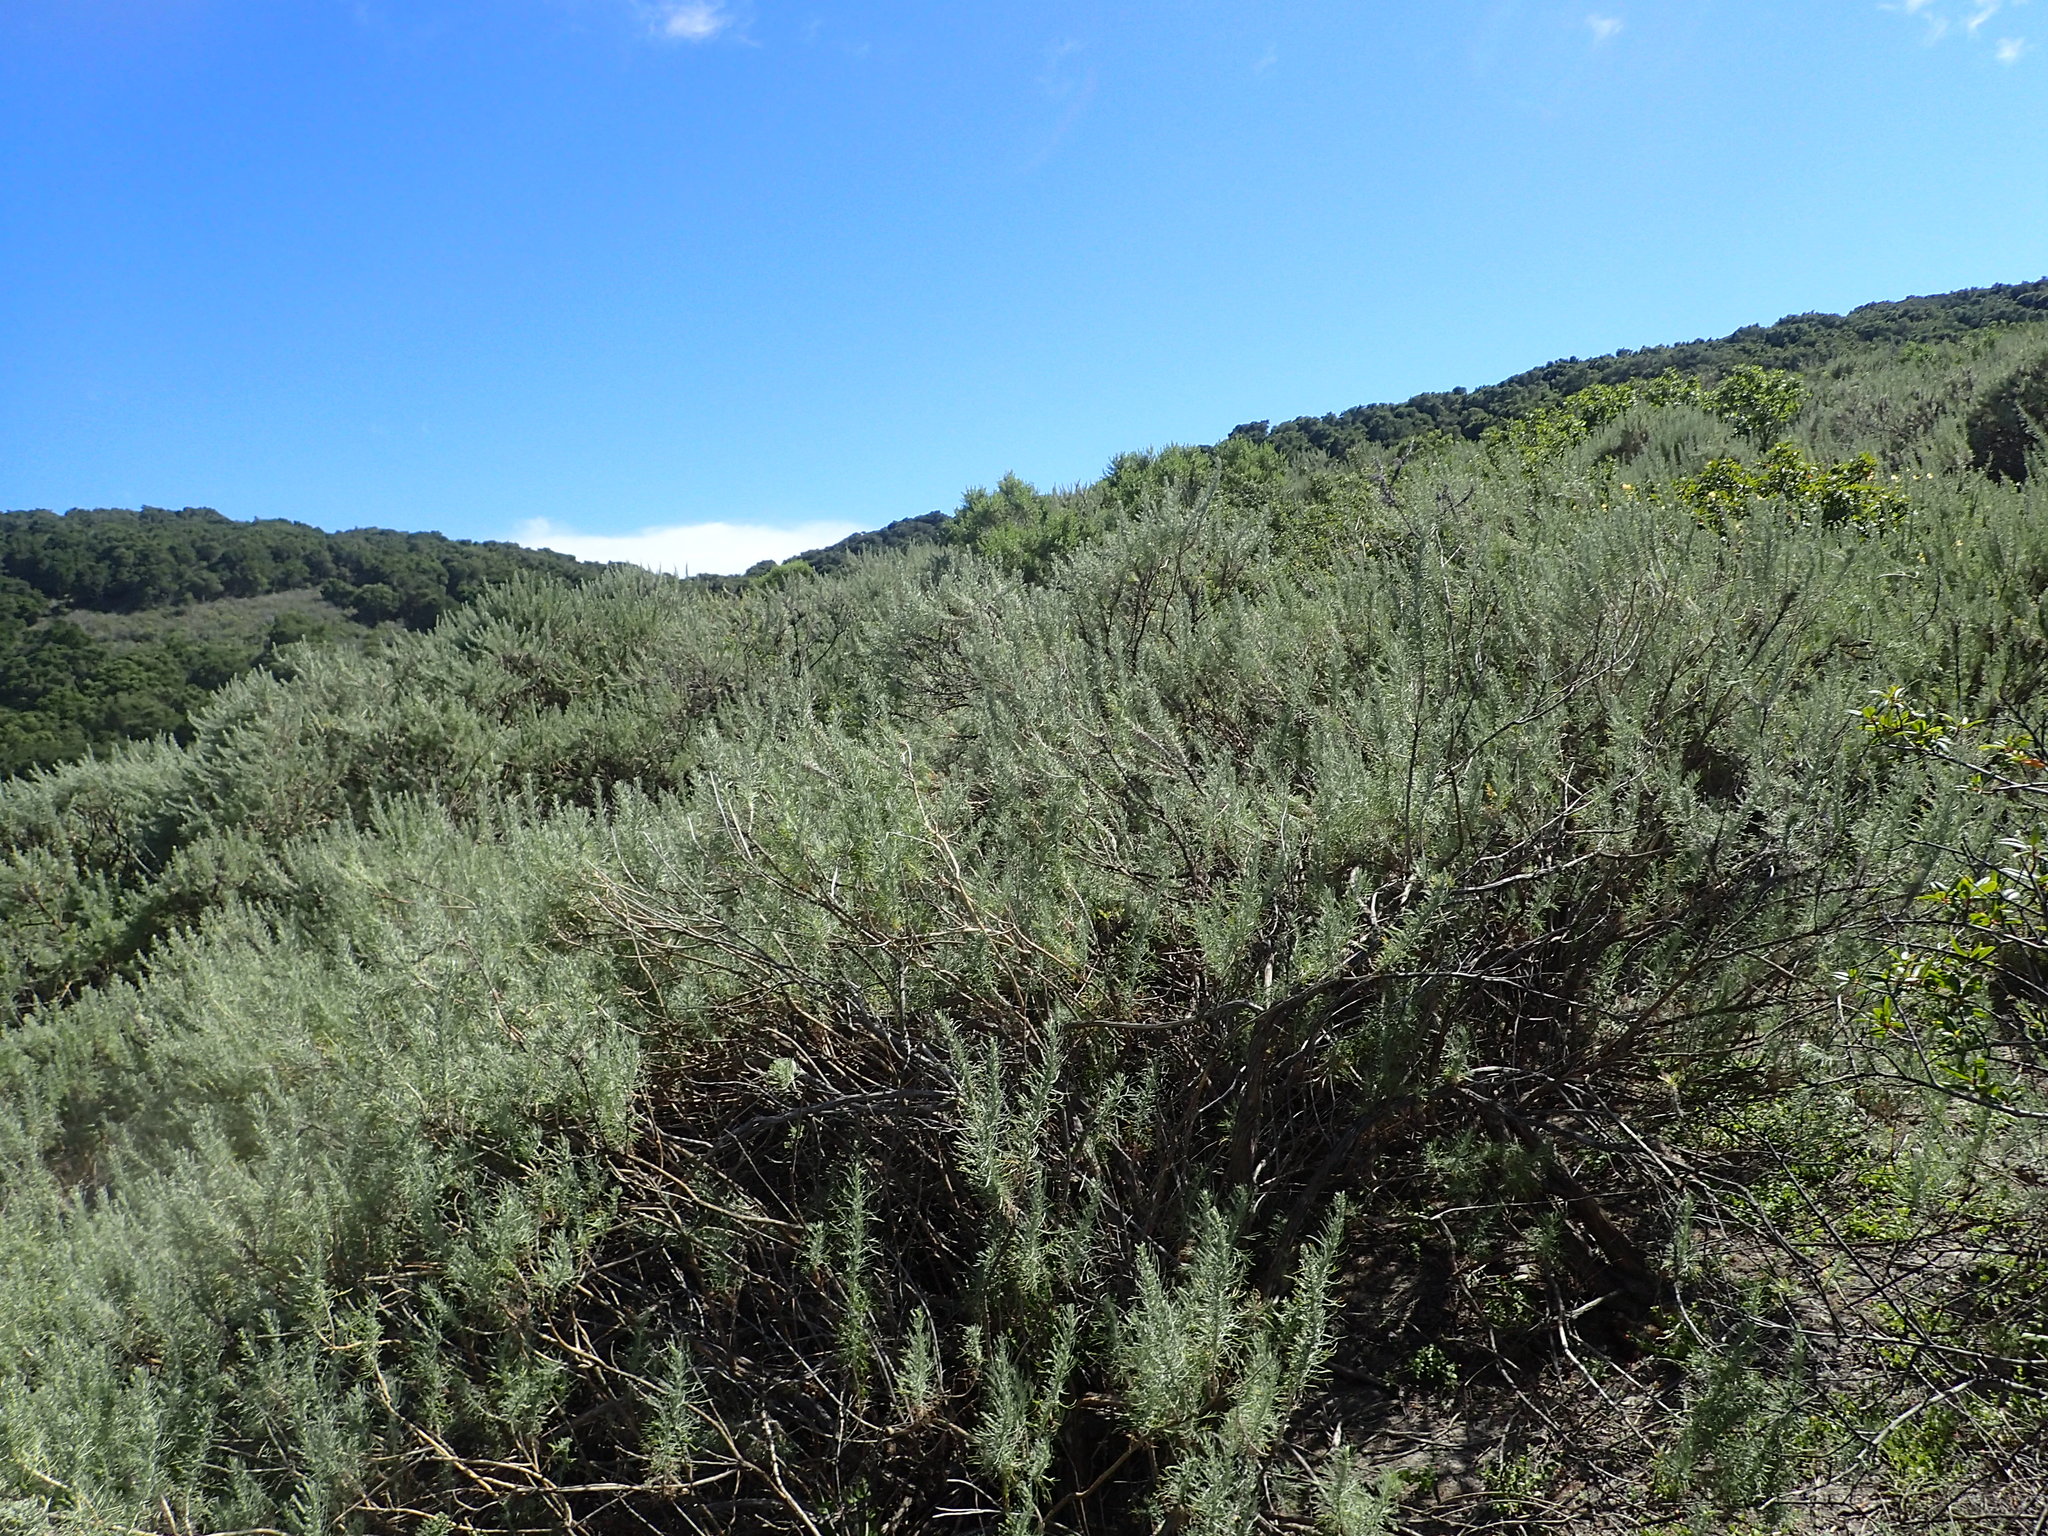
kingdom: Plantae
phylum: Tracheophyta
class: Magnoliopsida
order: Asterales
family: Asteraceae
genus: Artemisia
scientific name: Artemisia californica
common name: California sagebrush
